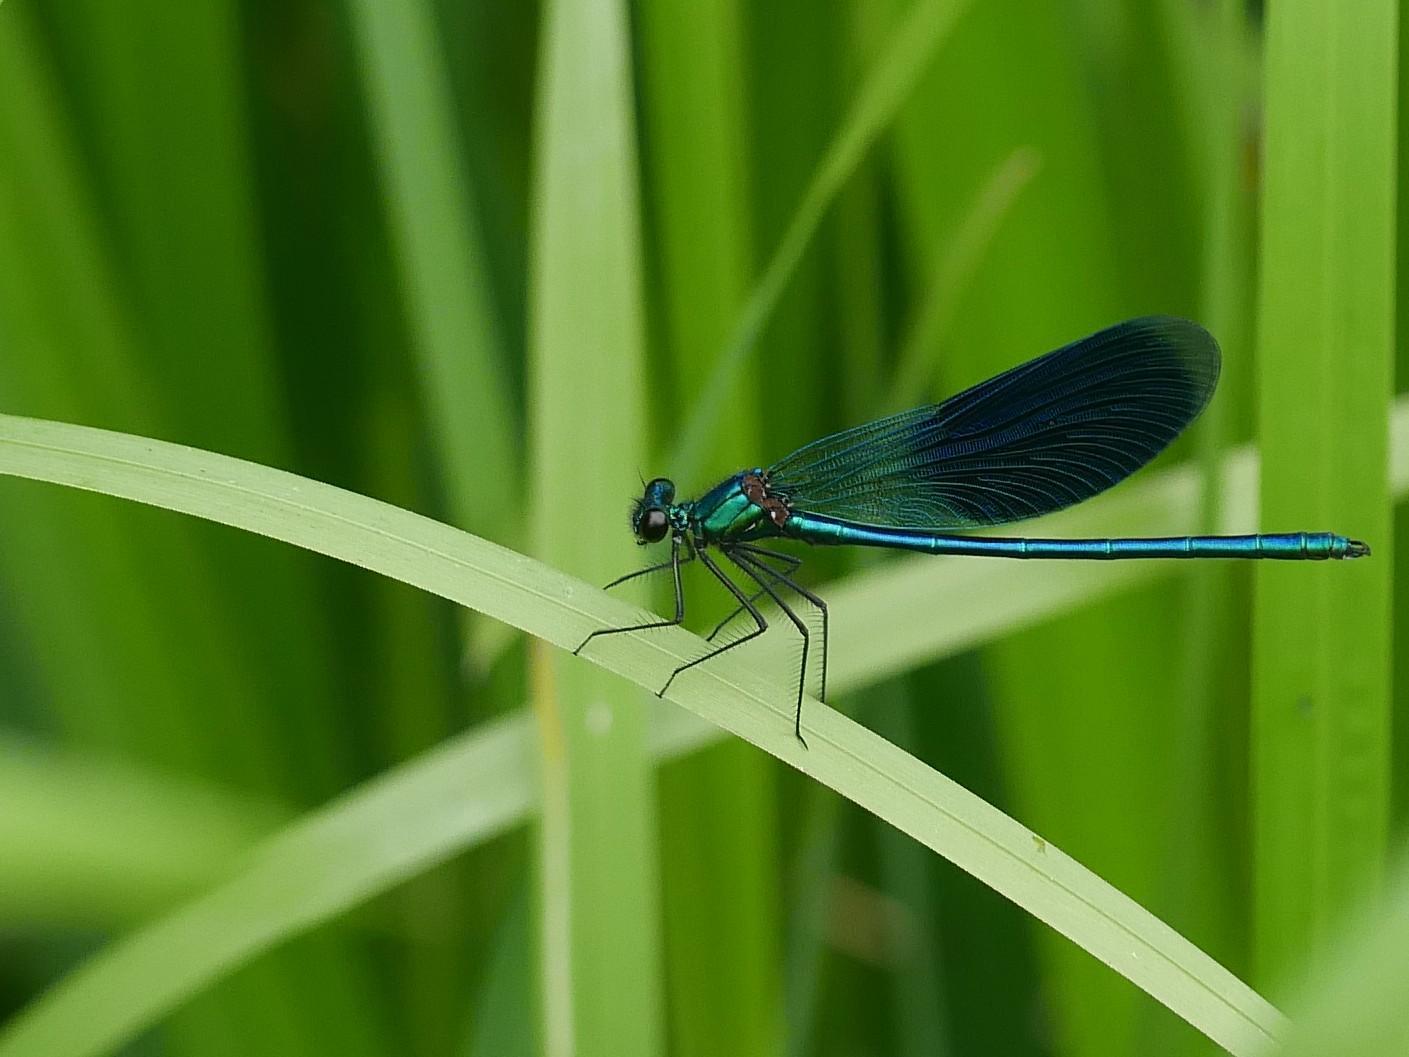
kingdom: Animalia
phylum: Arthropoda
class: Insecta
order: Odonata
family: Calopterygidae
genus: Calopteryx
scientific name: Calopteryx splendens
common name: Banded demoiselle
